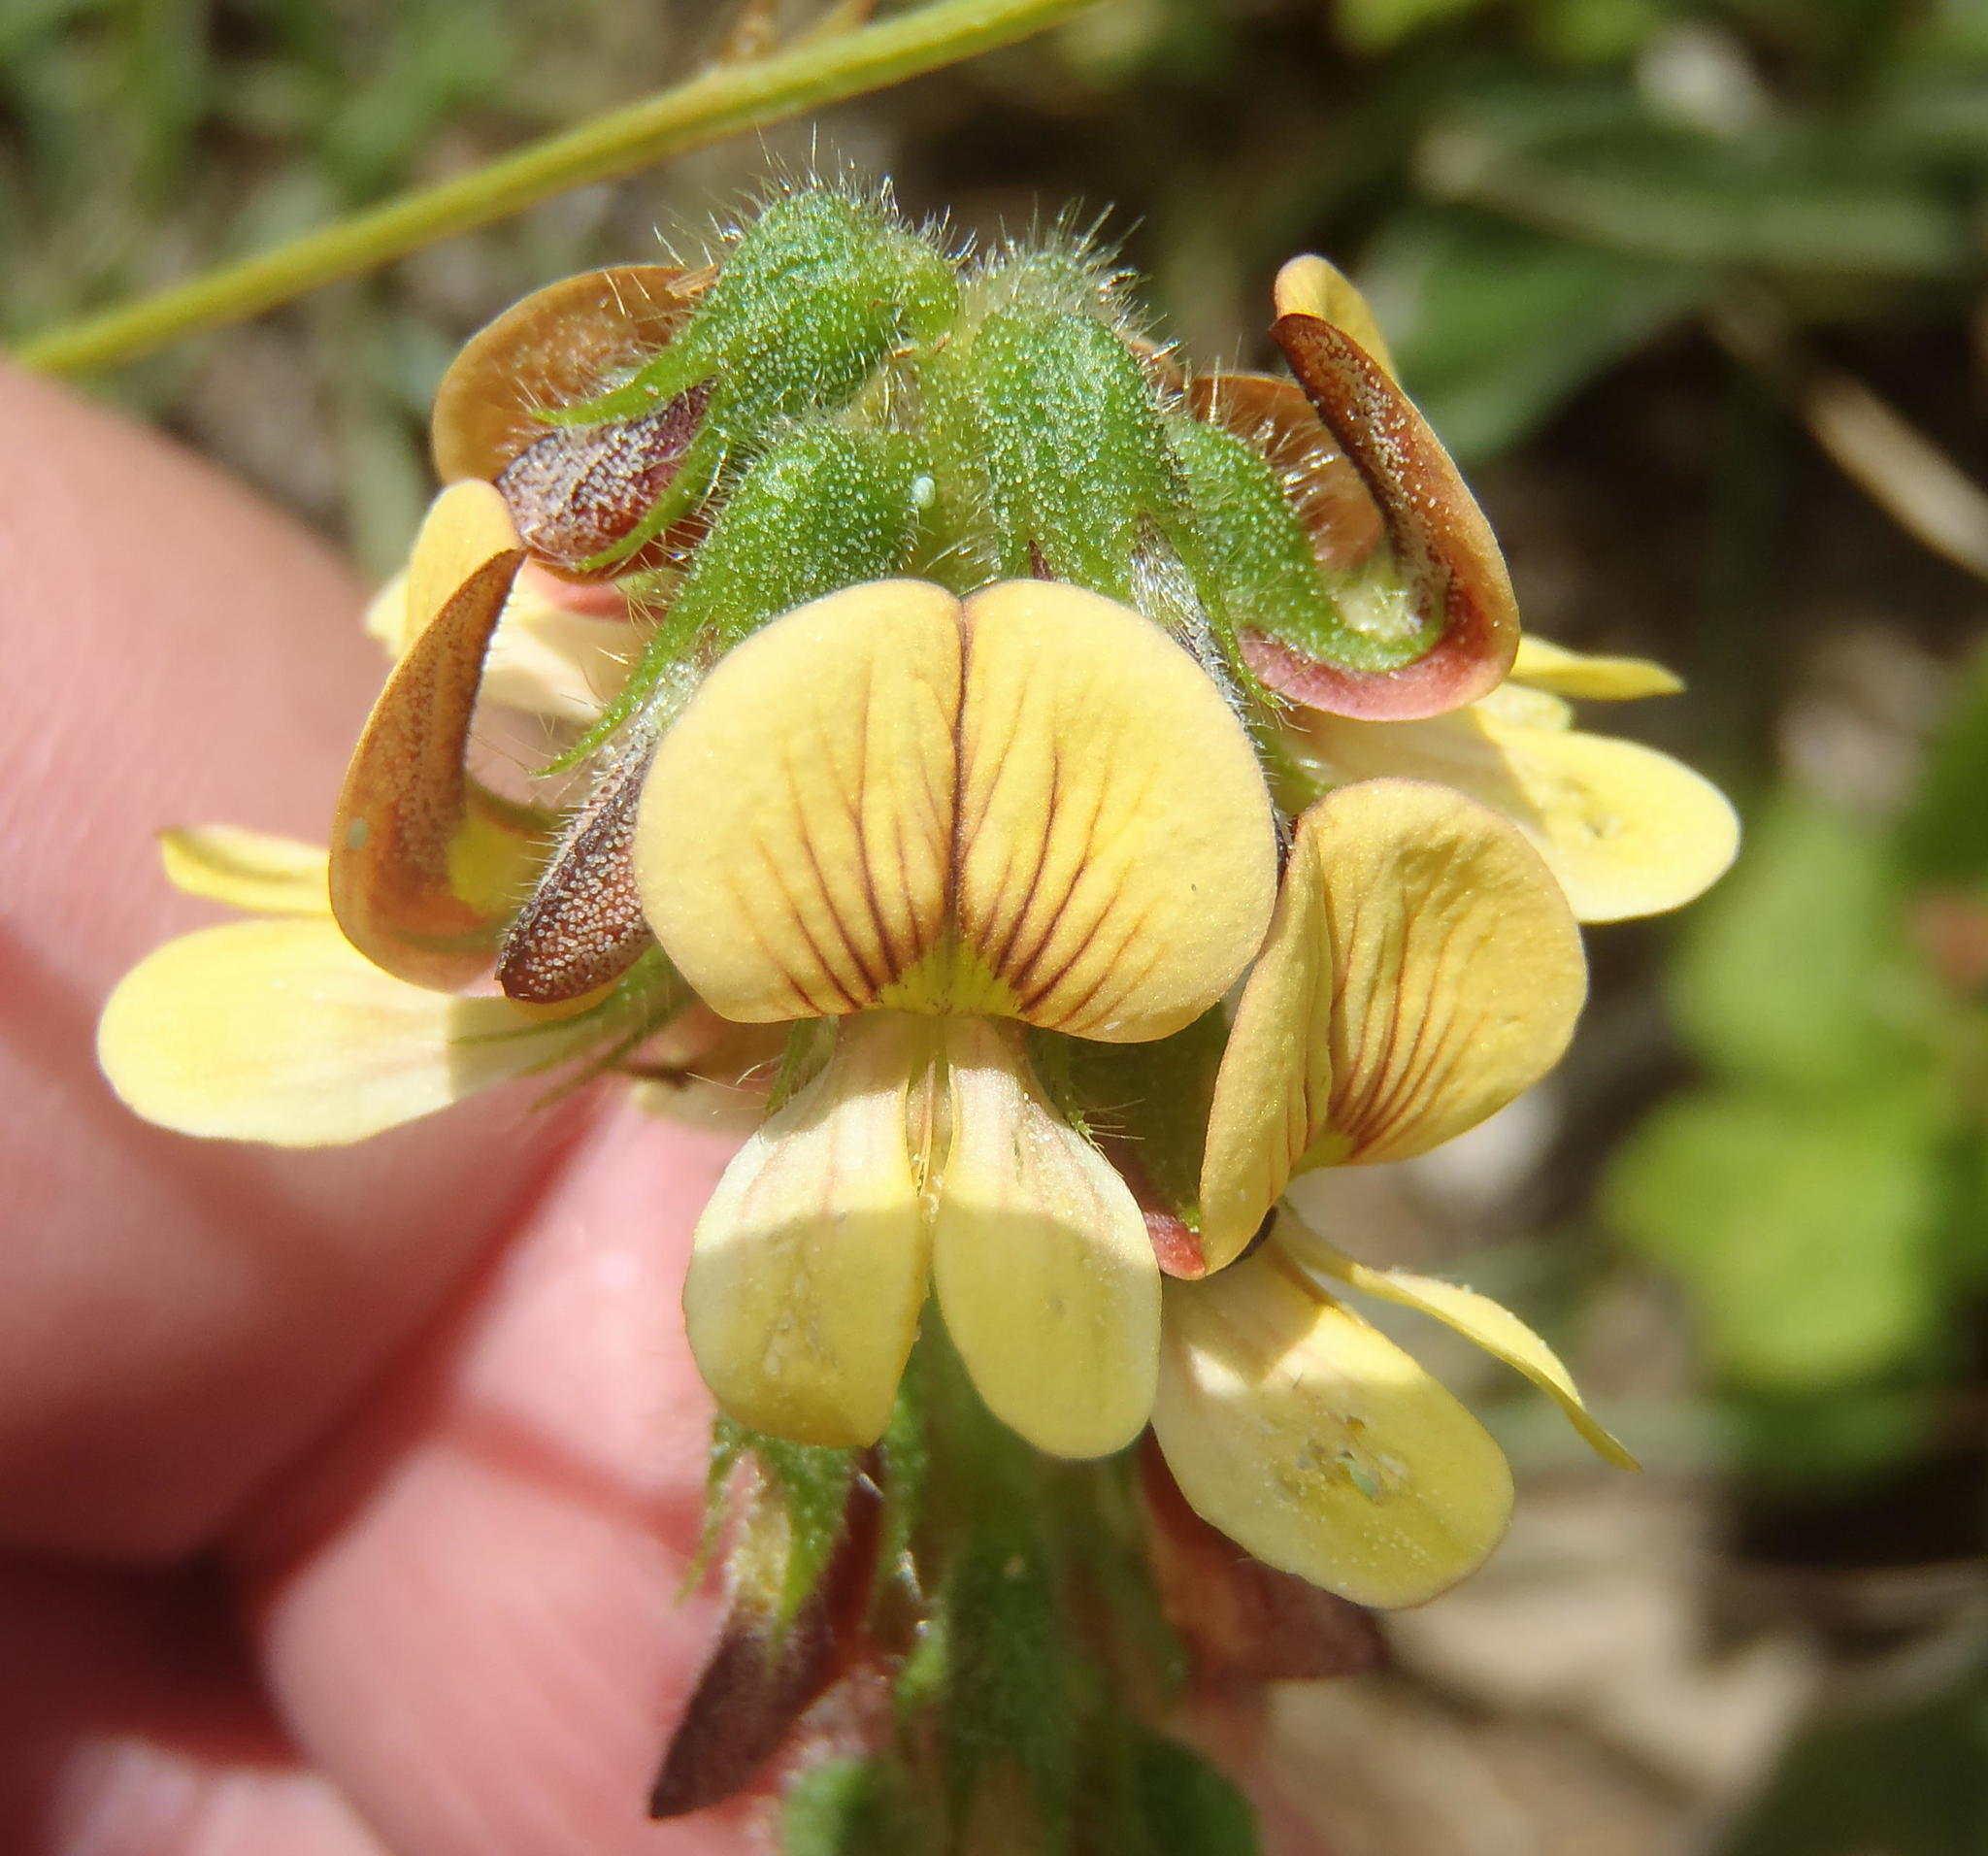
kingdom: Plantae
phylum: Tracheophyta
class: Magnoliopsida
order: Fabales
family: Fabaceae
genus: Eriosema
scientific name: Eriosema cordatum
